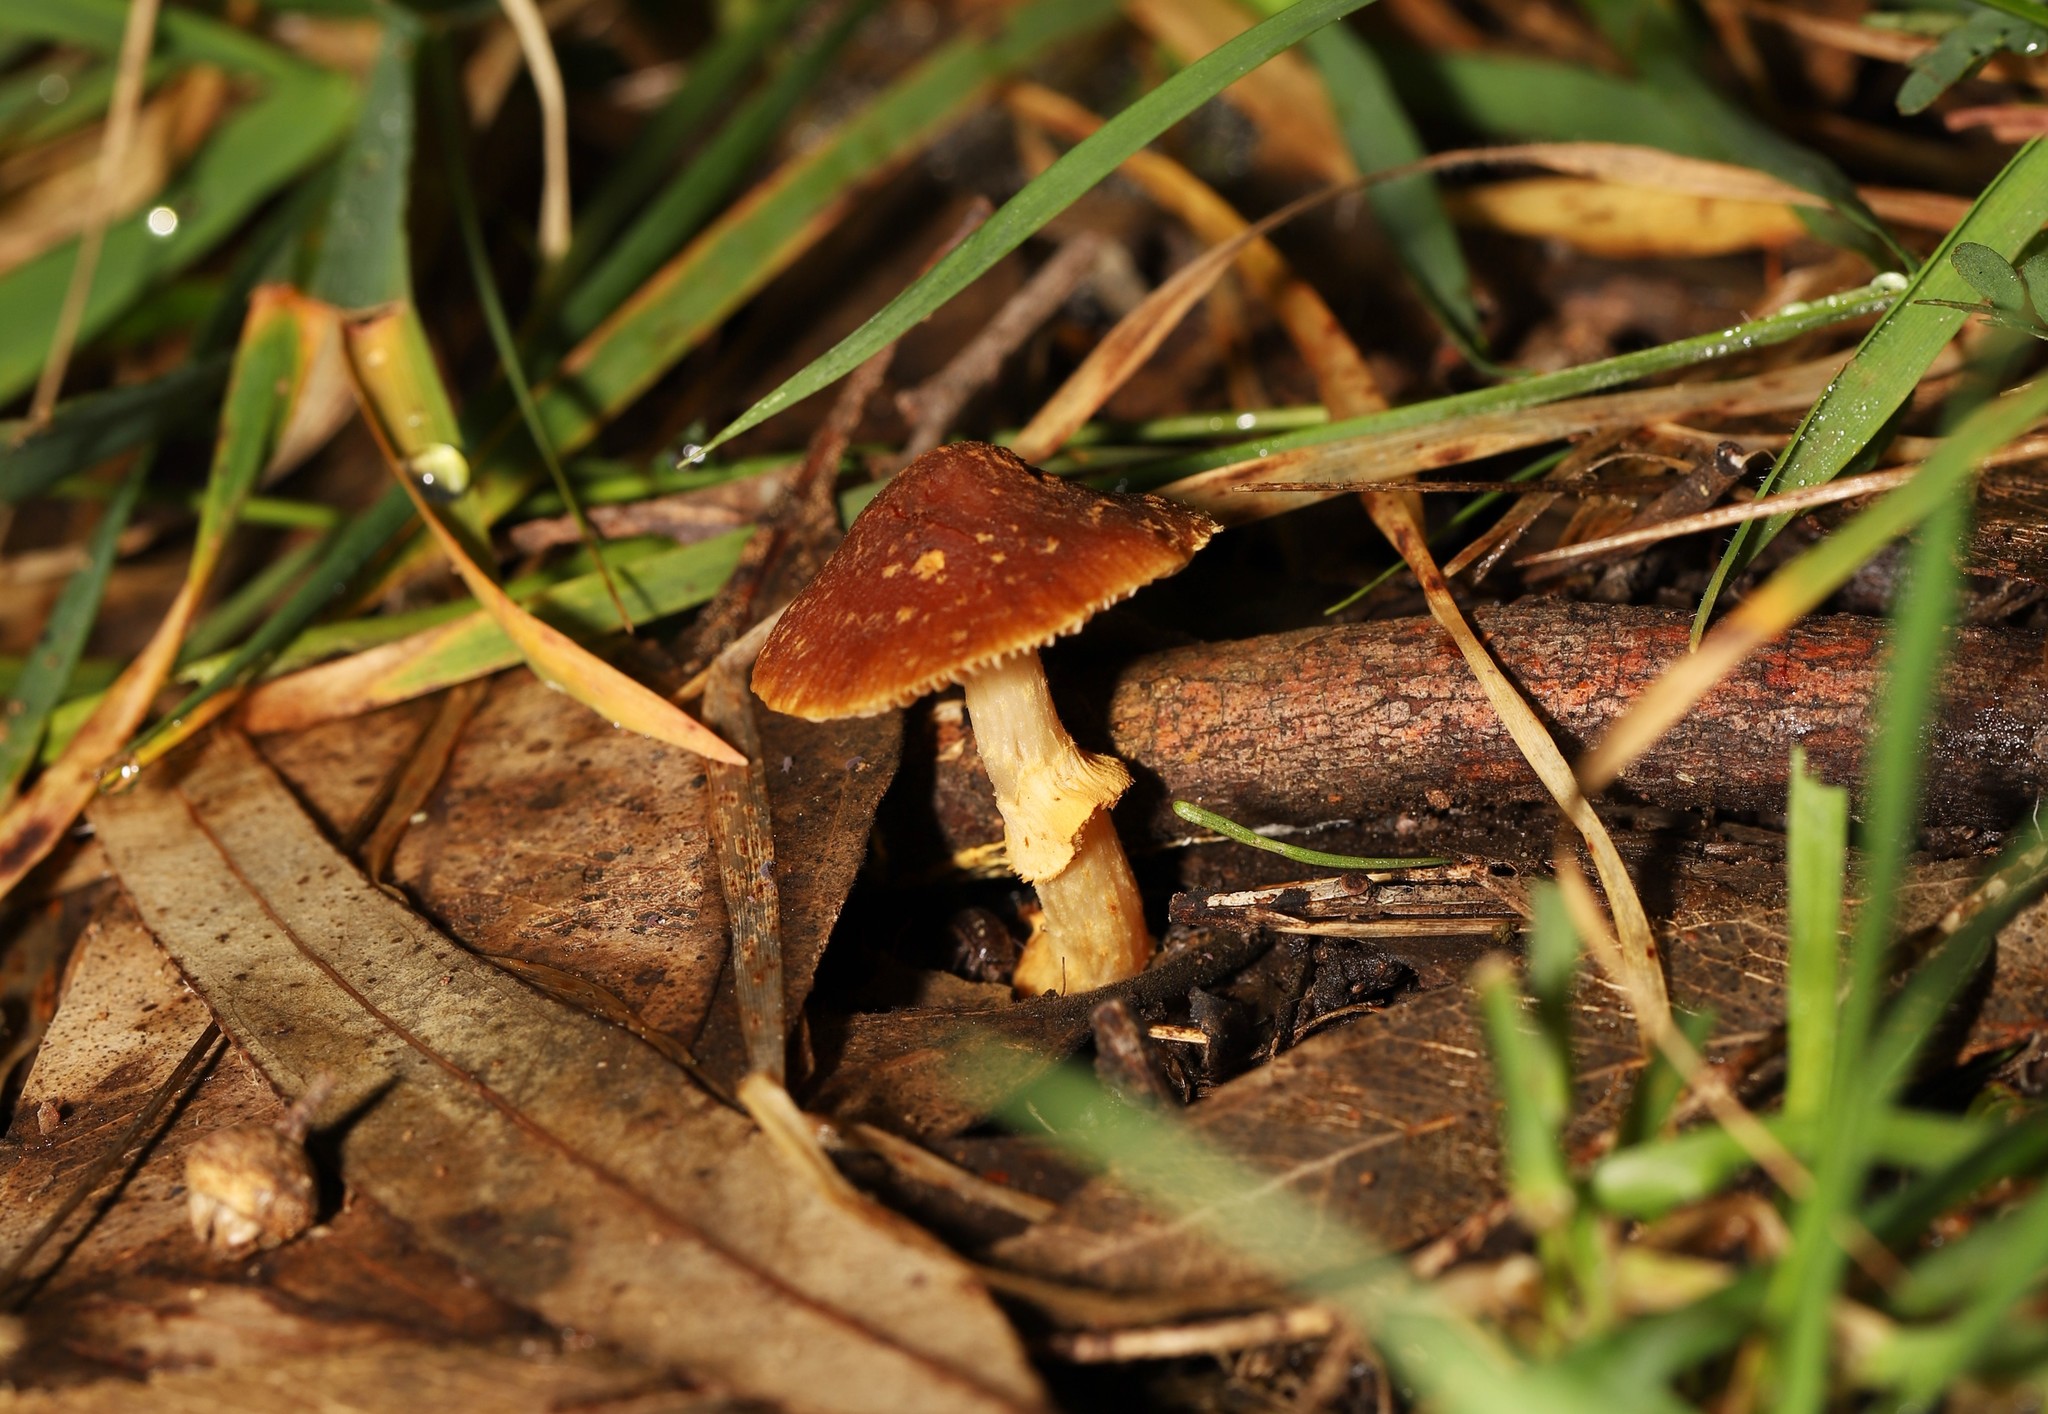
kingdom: Fungi
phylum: Basidiomycota
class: Agaricomycetes
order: Agaricales
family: Bolbitiaceae
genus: Descolea
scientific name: Descolea recedens
